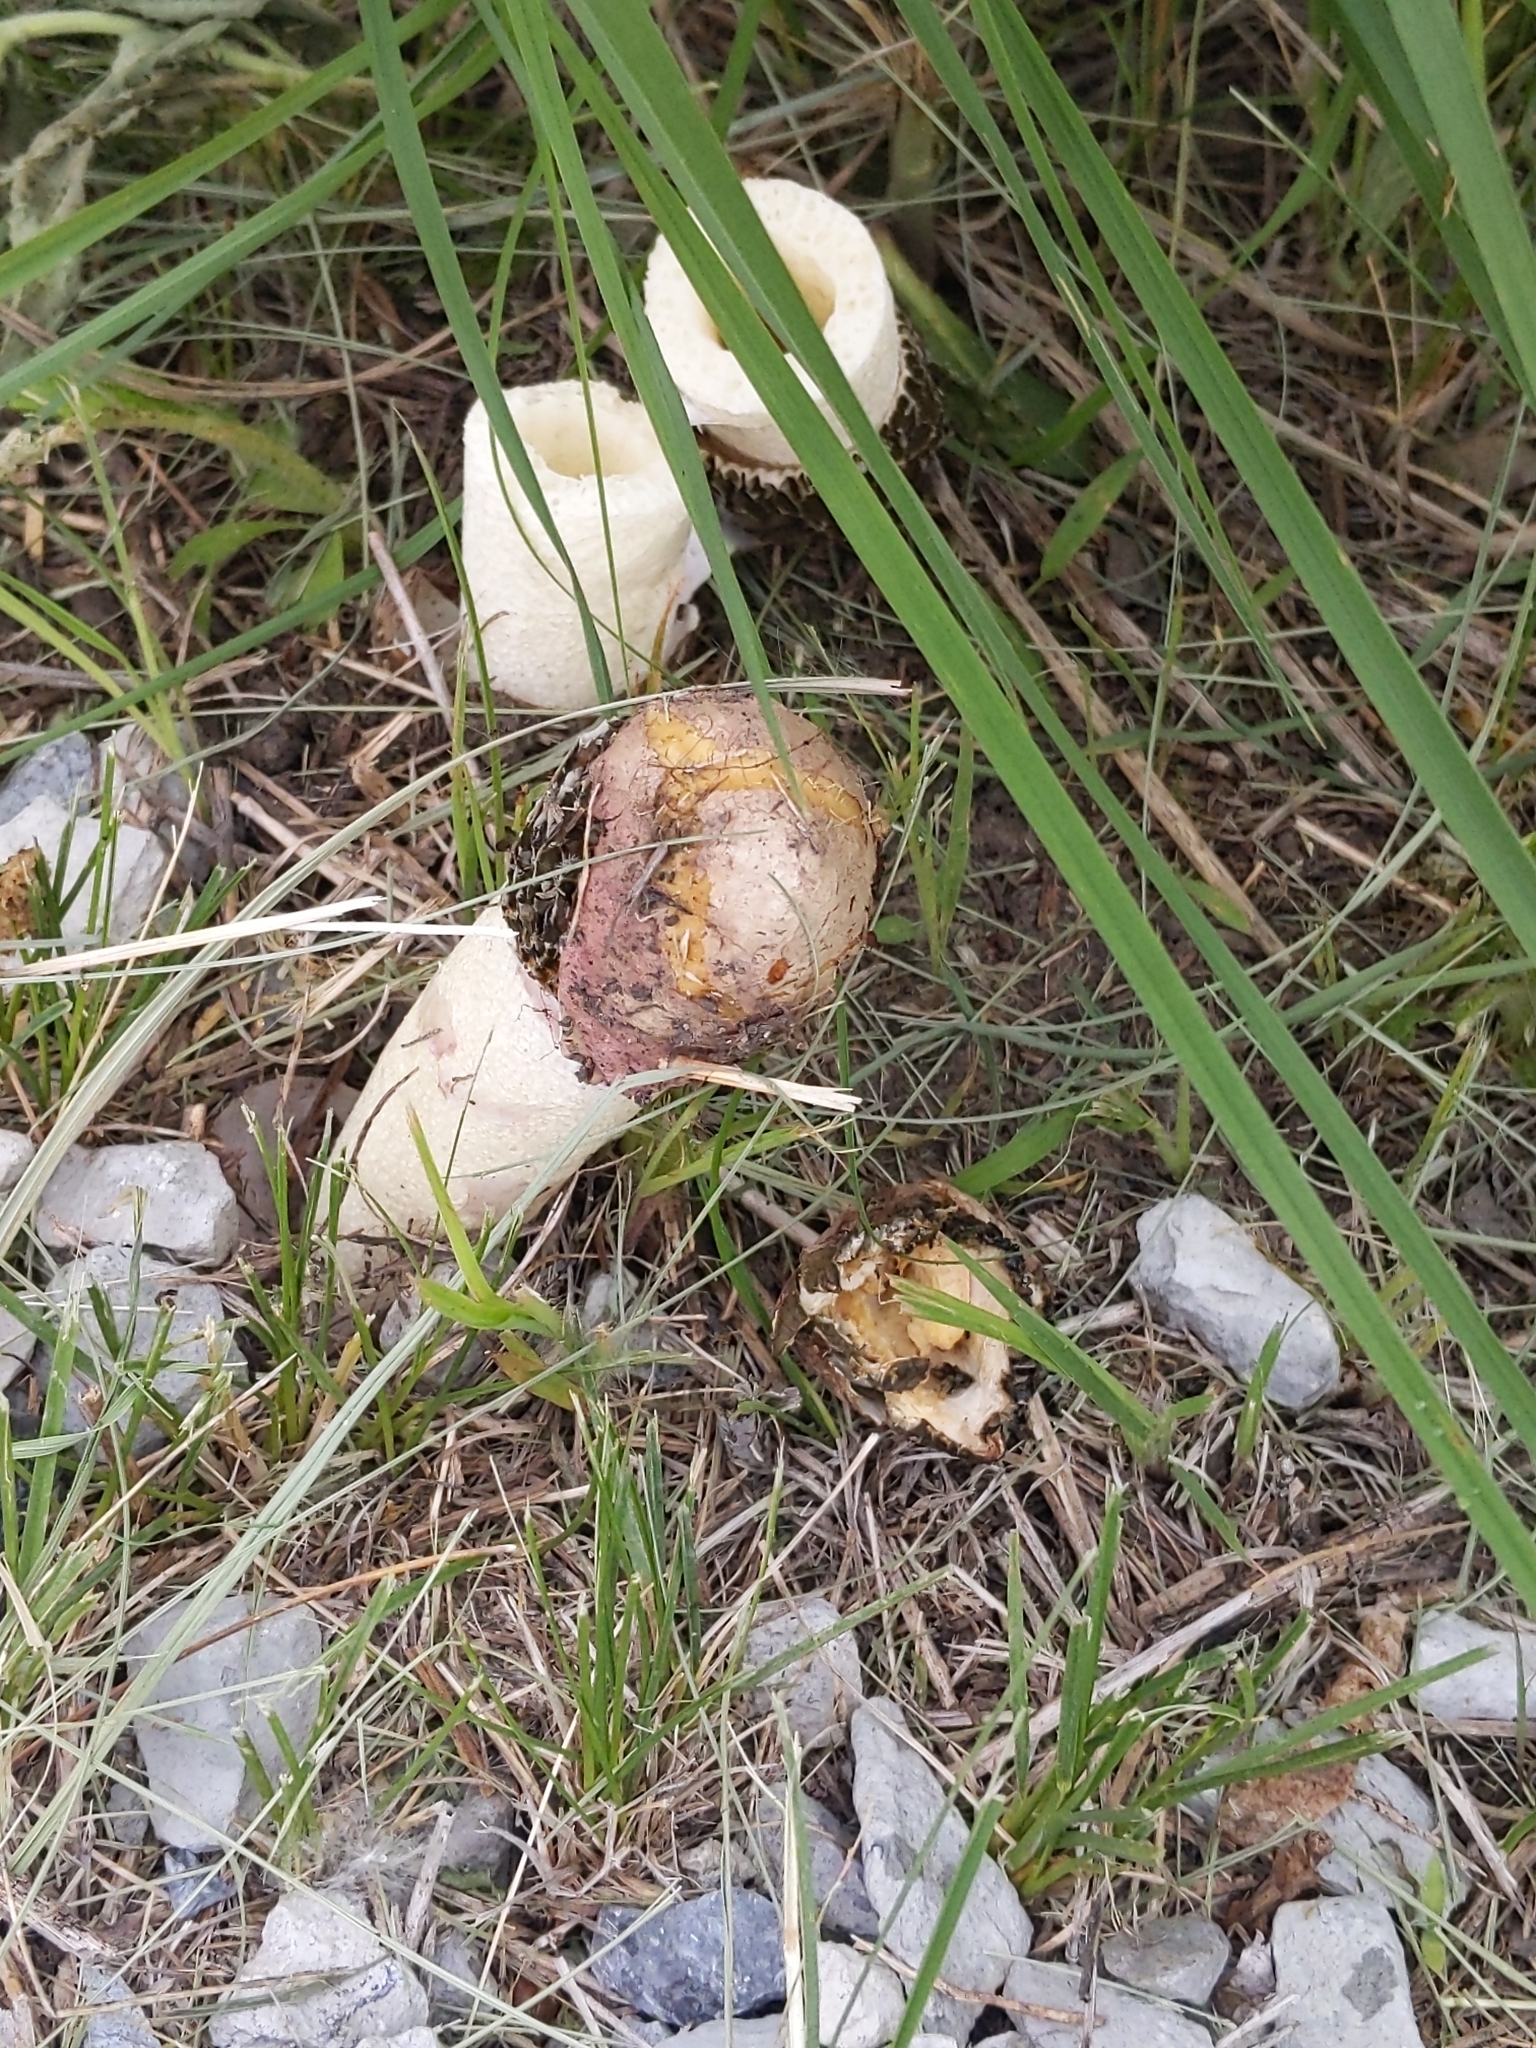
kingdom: Fungi
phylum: Basidiomycota
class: Agaricomycetes
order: Phallales
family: Phallaceae
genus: Phallus
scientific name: Phallus hadriani
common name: Sand stinkhorn
